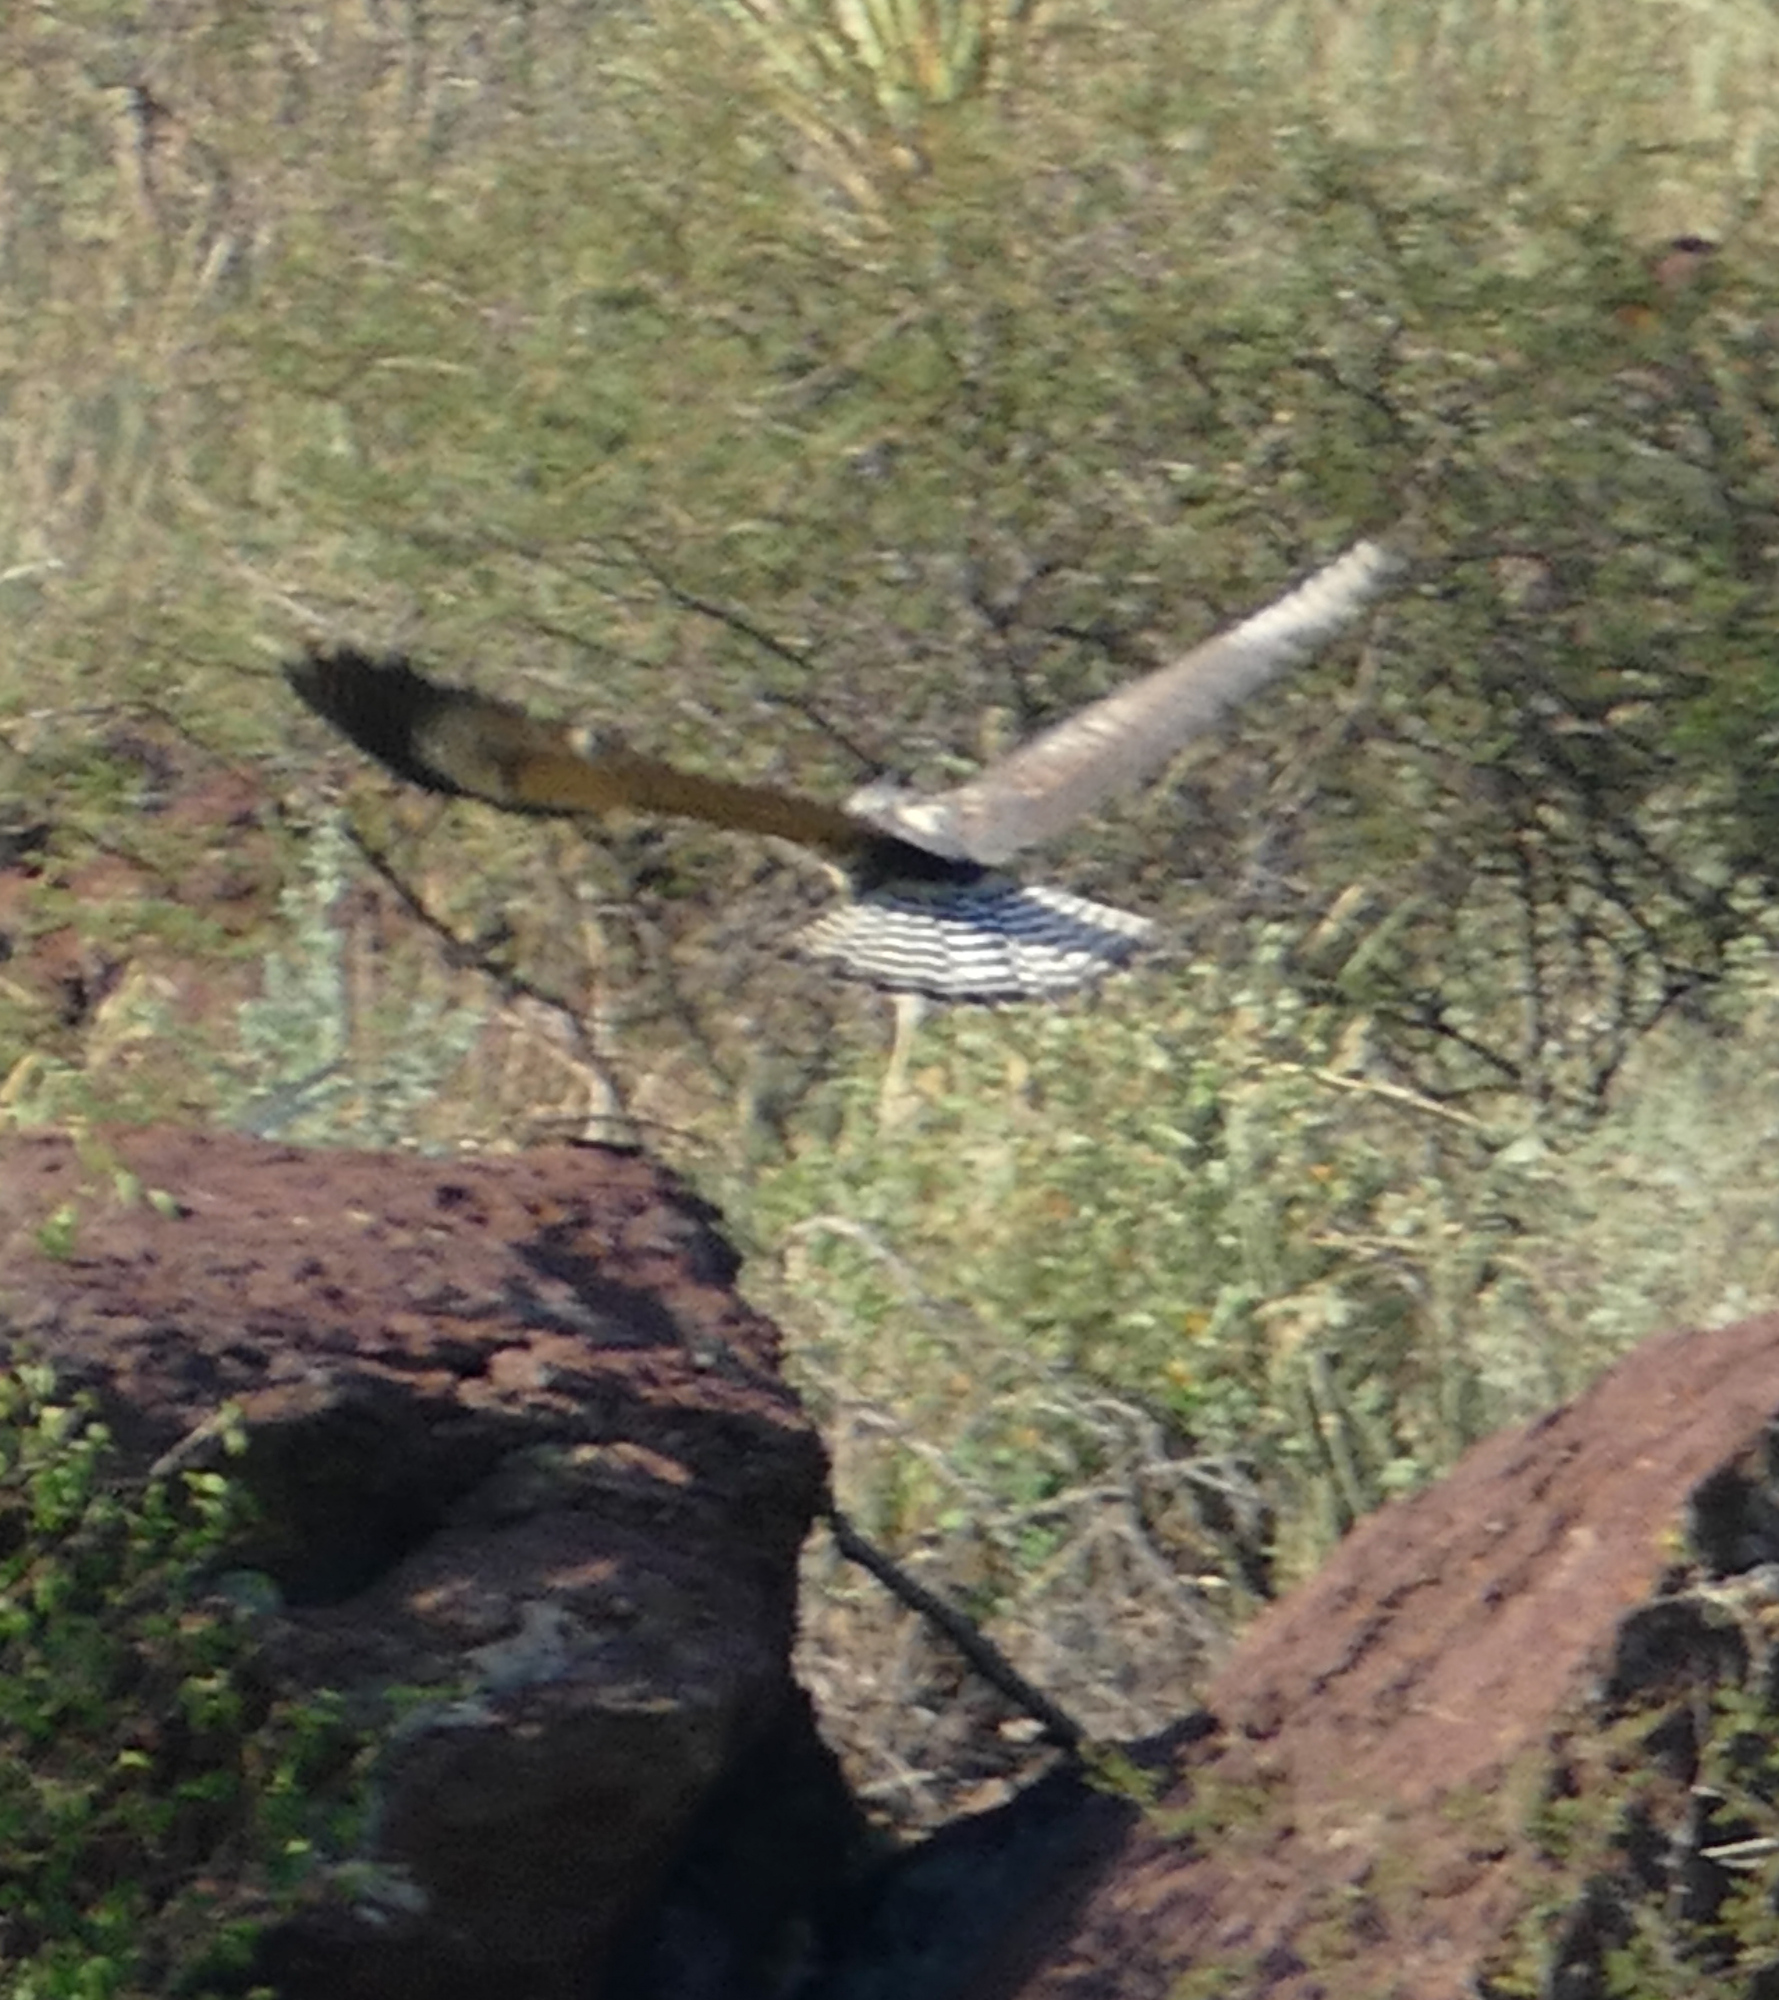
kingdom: Animalia
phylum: Chordata
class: Aves
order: Accipitriformes
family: Accipitridae
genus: Buteogallus
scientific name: Buteogallus anthracinus
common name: Common black hawk
